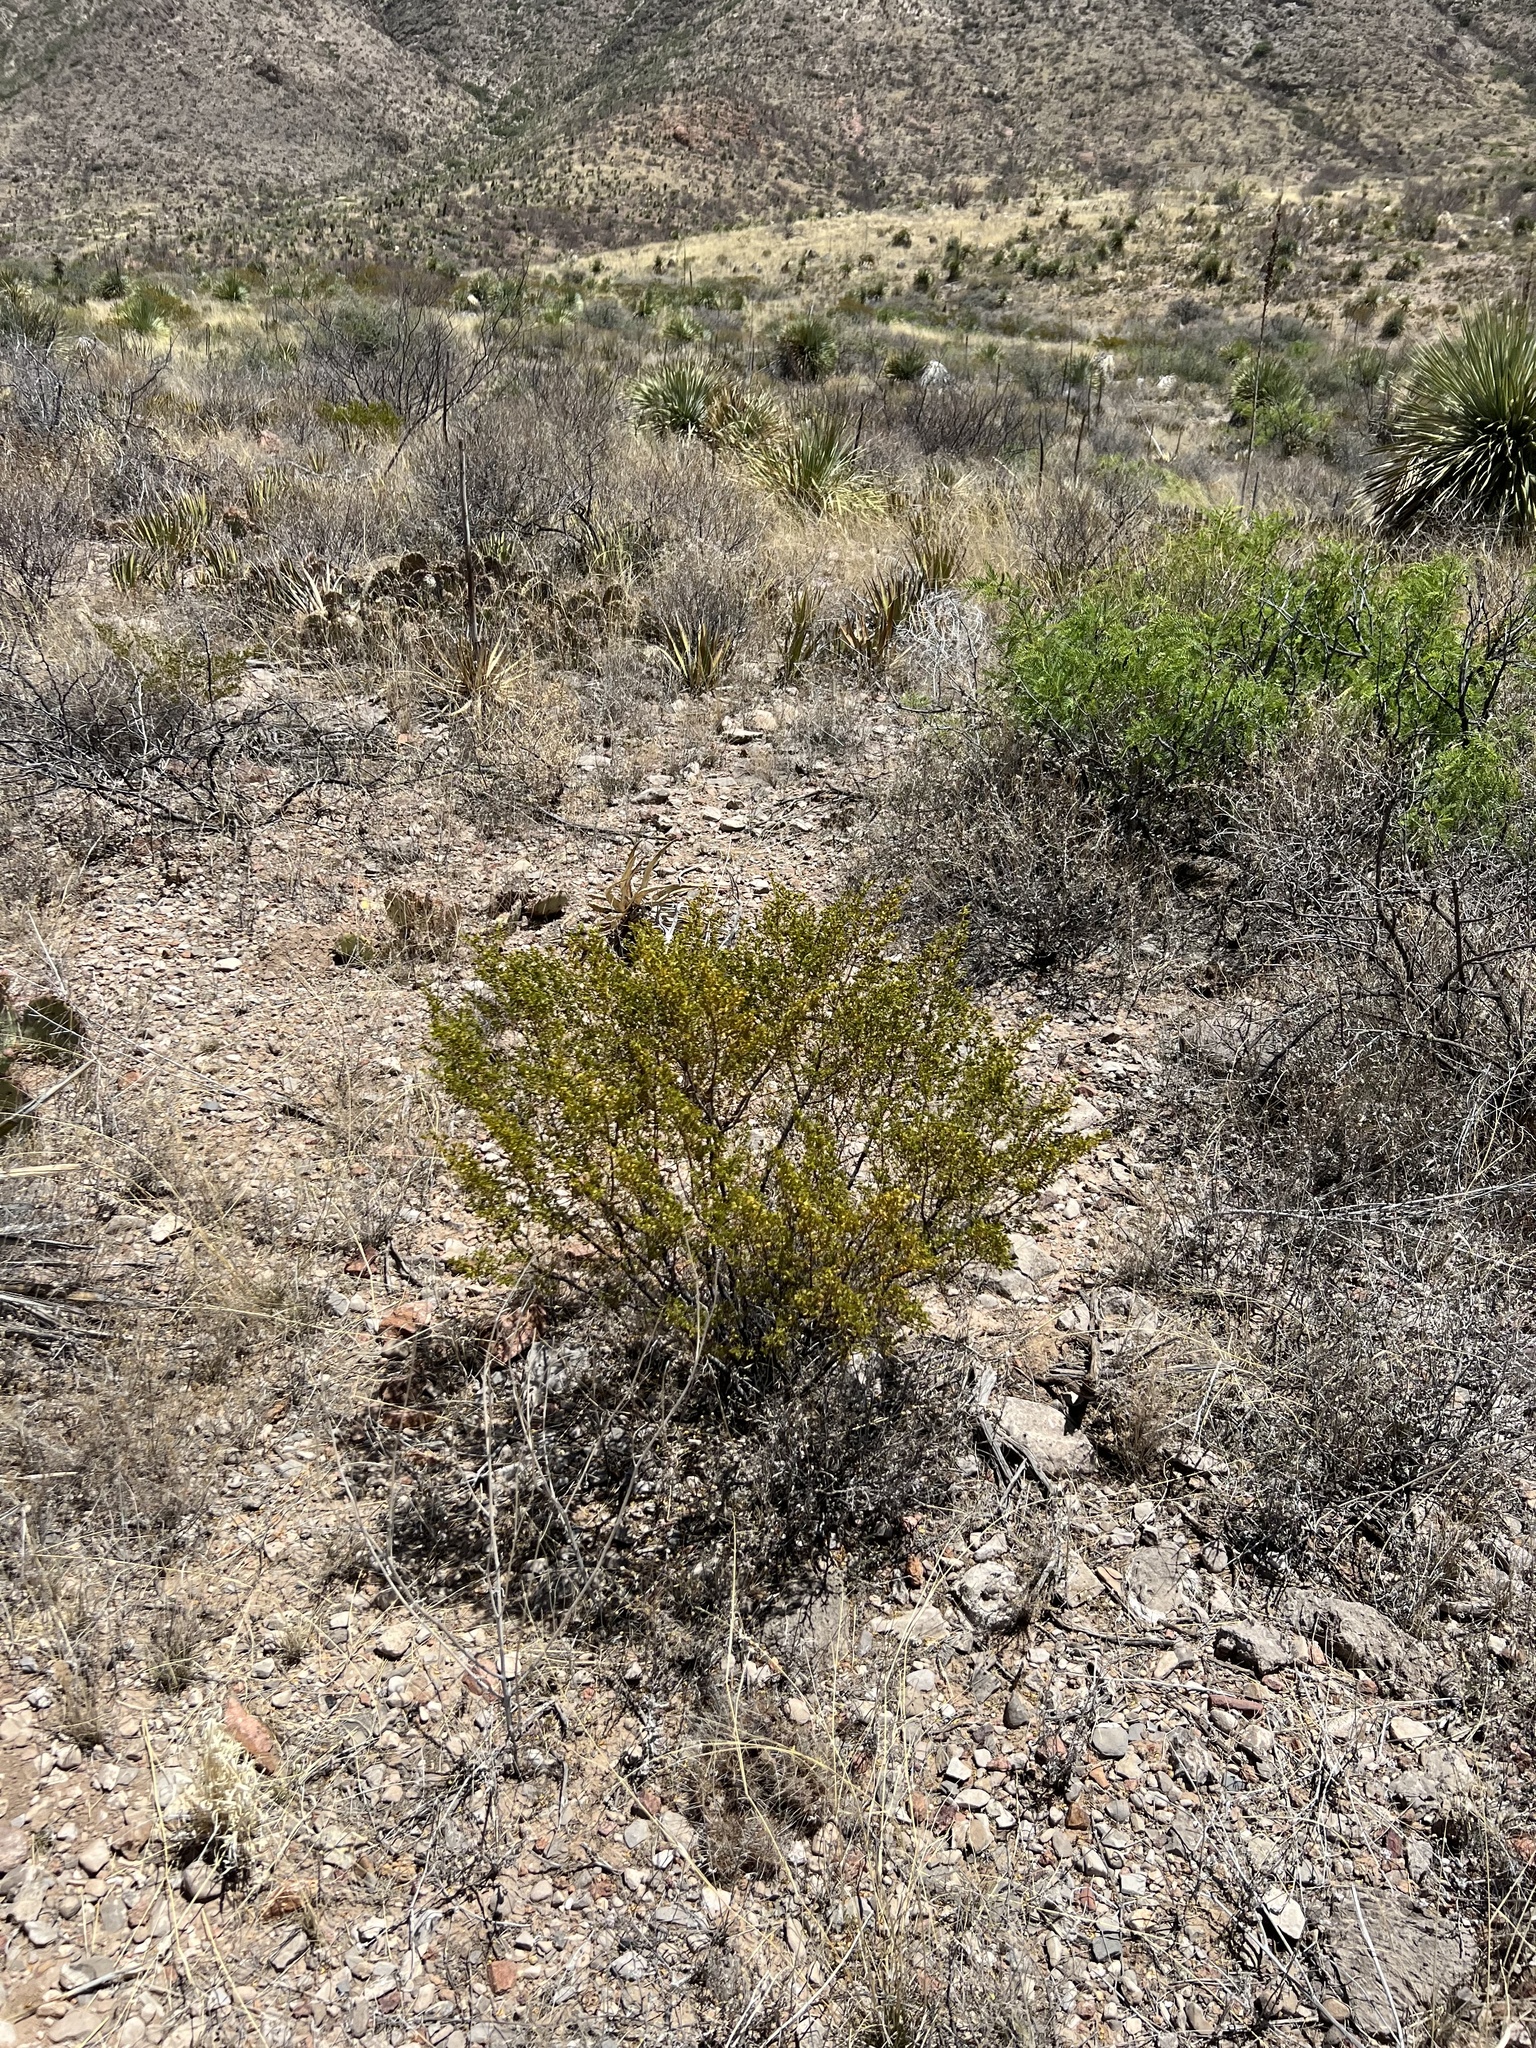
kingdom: Plantae
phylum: Tracheophyta
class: Magnoliopsida
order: Zygophyllales
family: Zygophyllaceae
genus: Larrea
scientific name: Larrea tridentata
